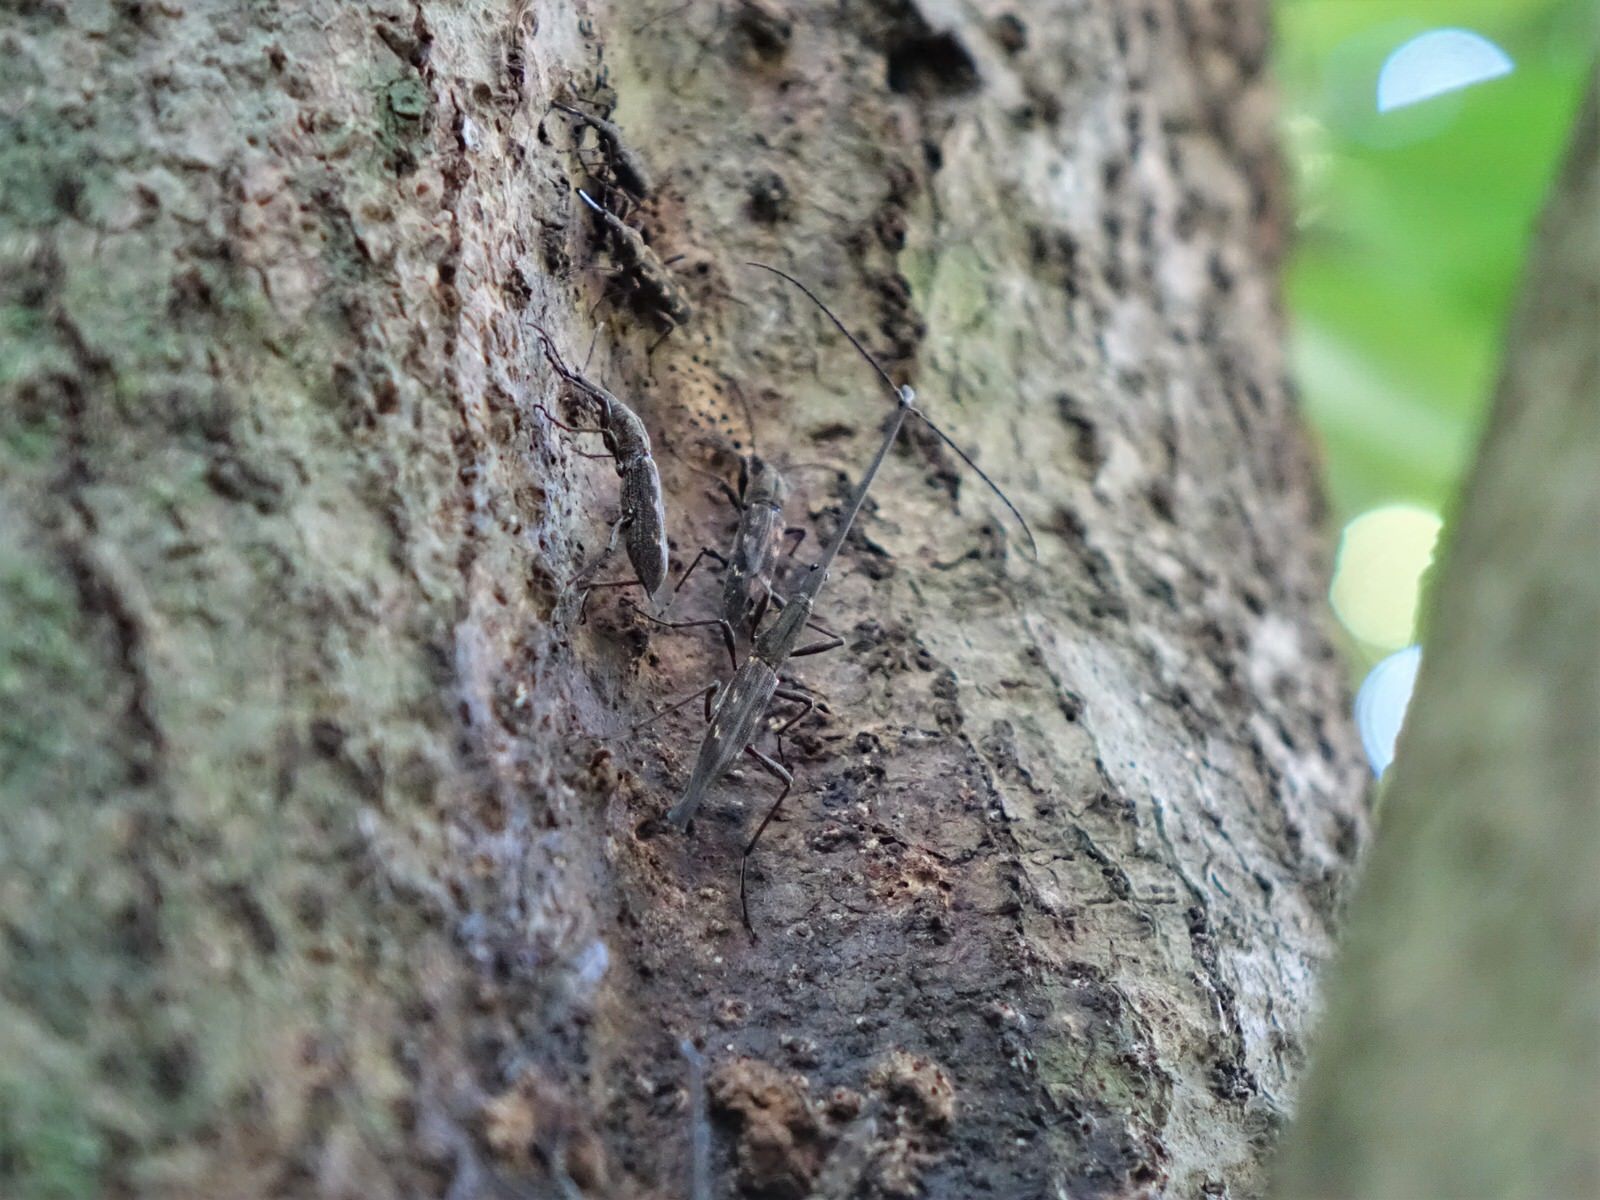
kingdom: Animalia
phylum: Arthropoda
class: Insecta
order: Coleoptera
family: Brentidae
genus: Lasiorhynchus
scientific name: Lasiorhynchus barbicornis
